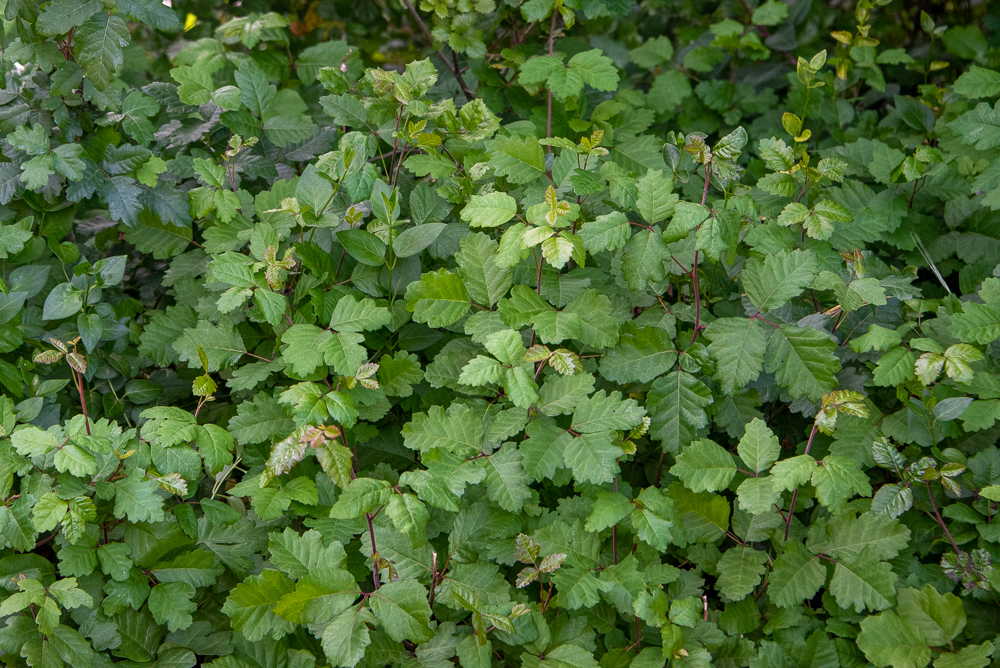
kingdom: Plantae
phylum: Tracheophyta
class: Magnoliopsida
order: Sapindales
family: Anacardiaceae
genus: Toxicodendron
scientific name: Toxicodendron diversilobum
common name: Pacific poison-oak
